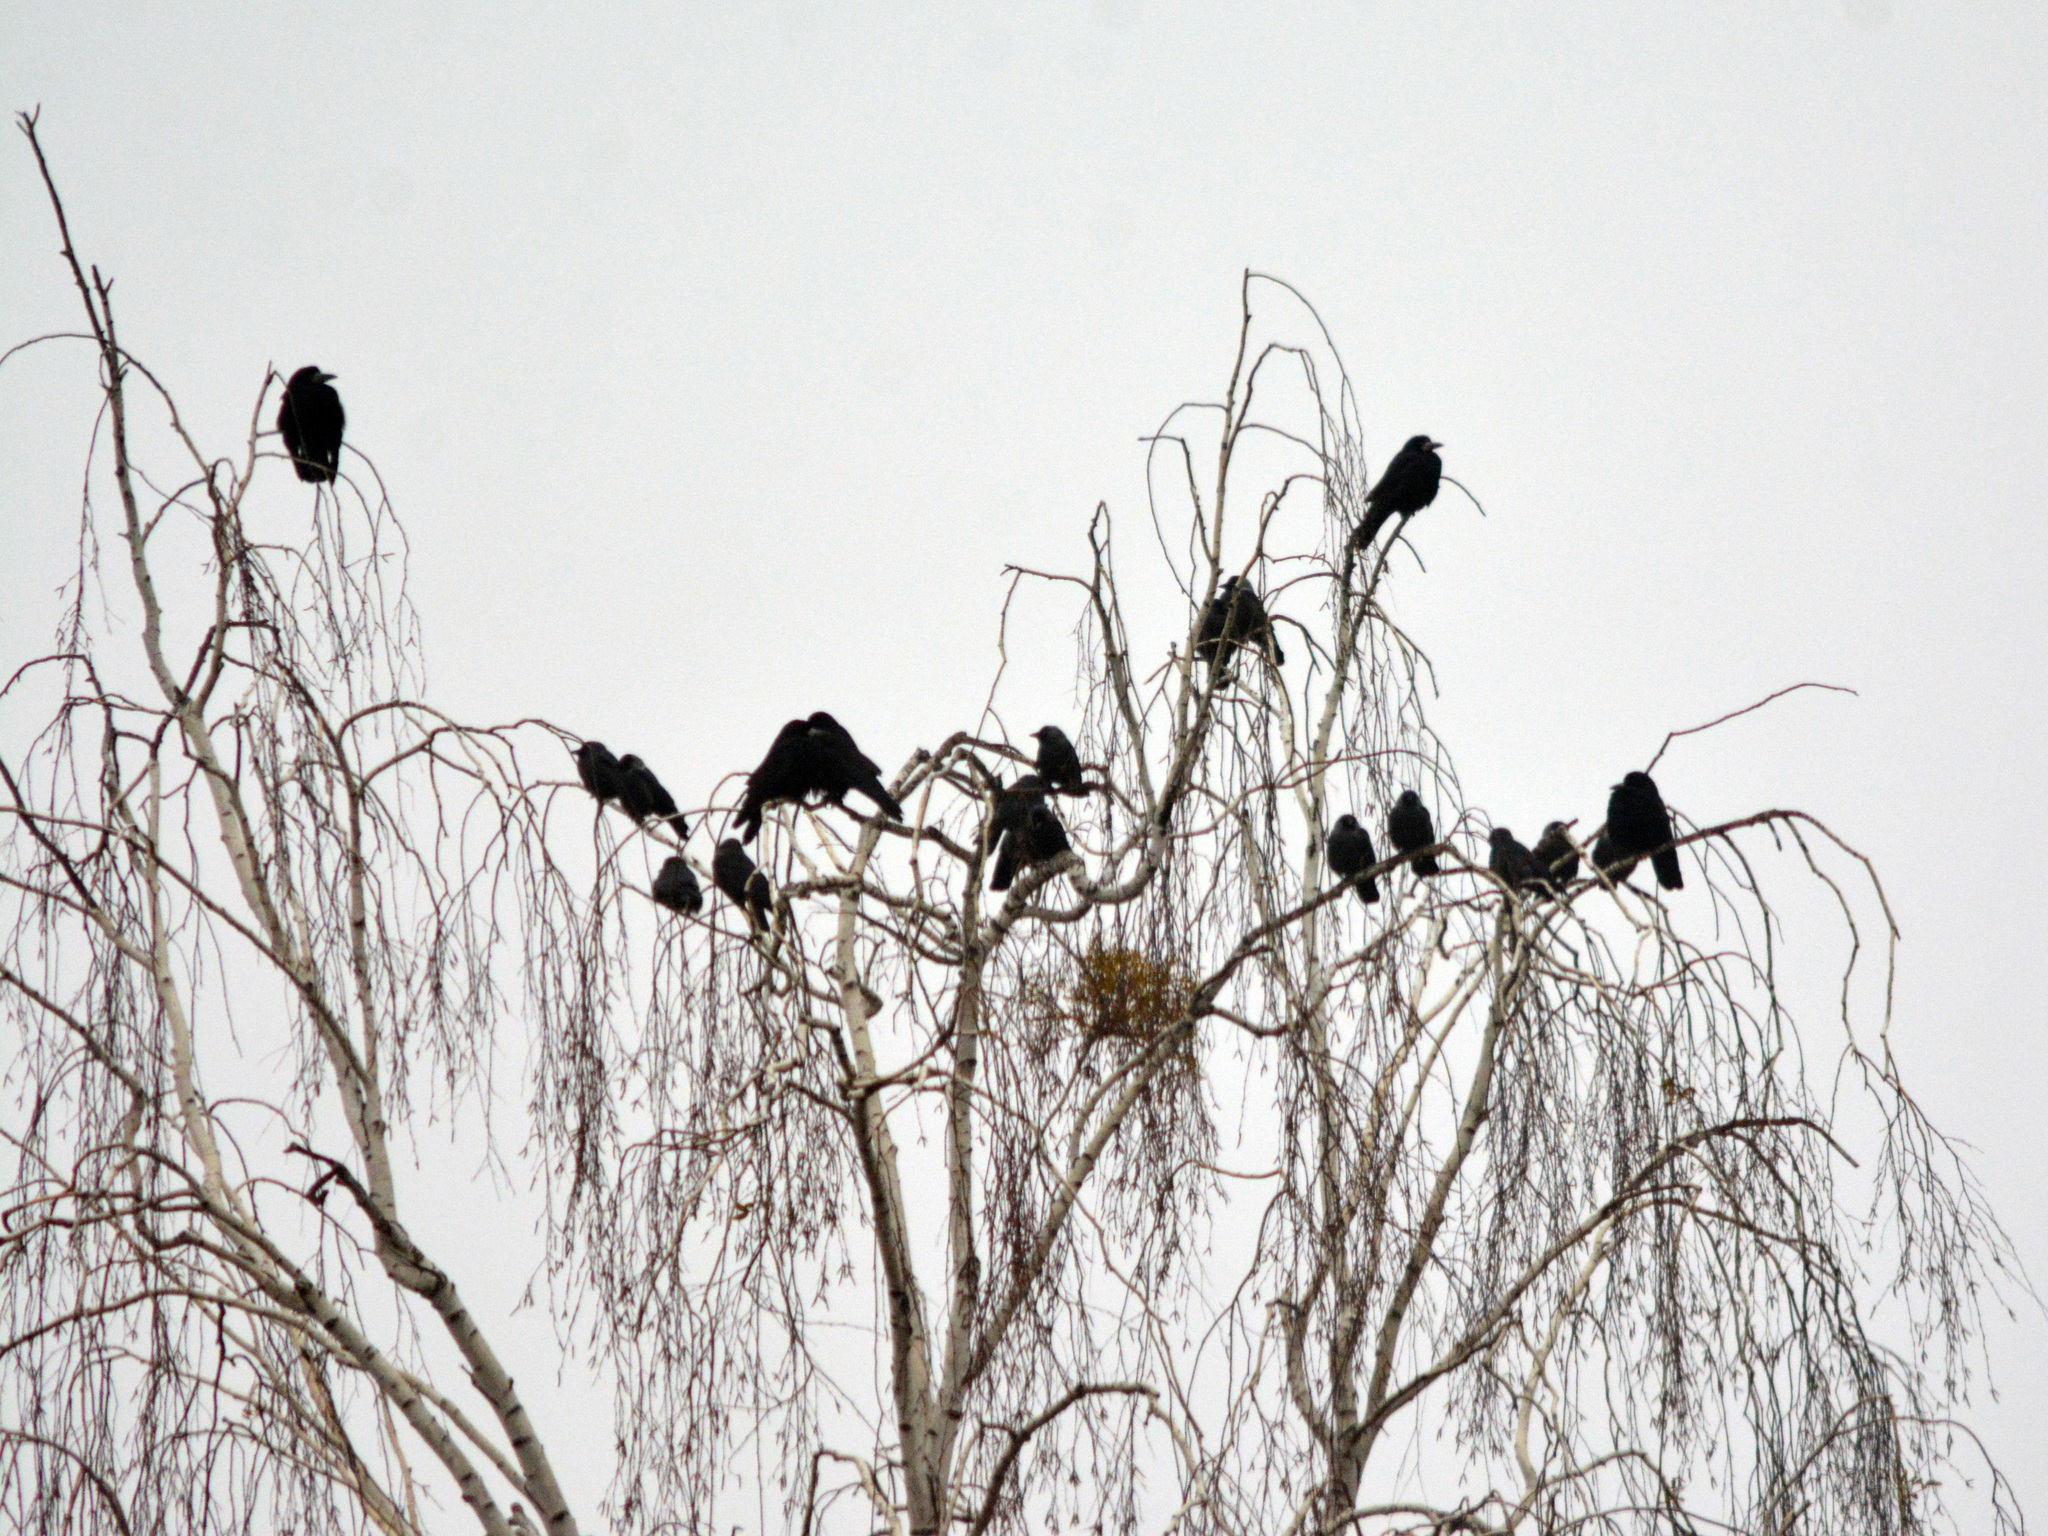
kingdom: Animalia
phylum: Chordata
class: Aves
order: Passeriformes
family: Corvidae
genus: Corvus
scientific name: Corvus frugilegus
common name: Rook
